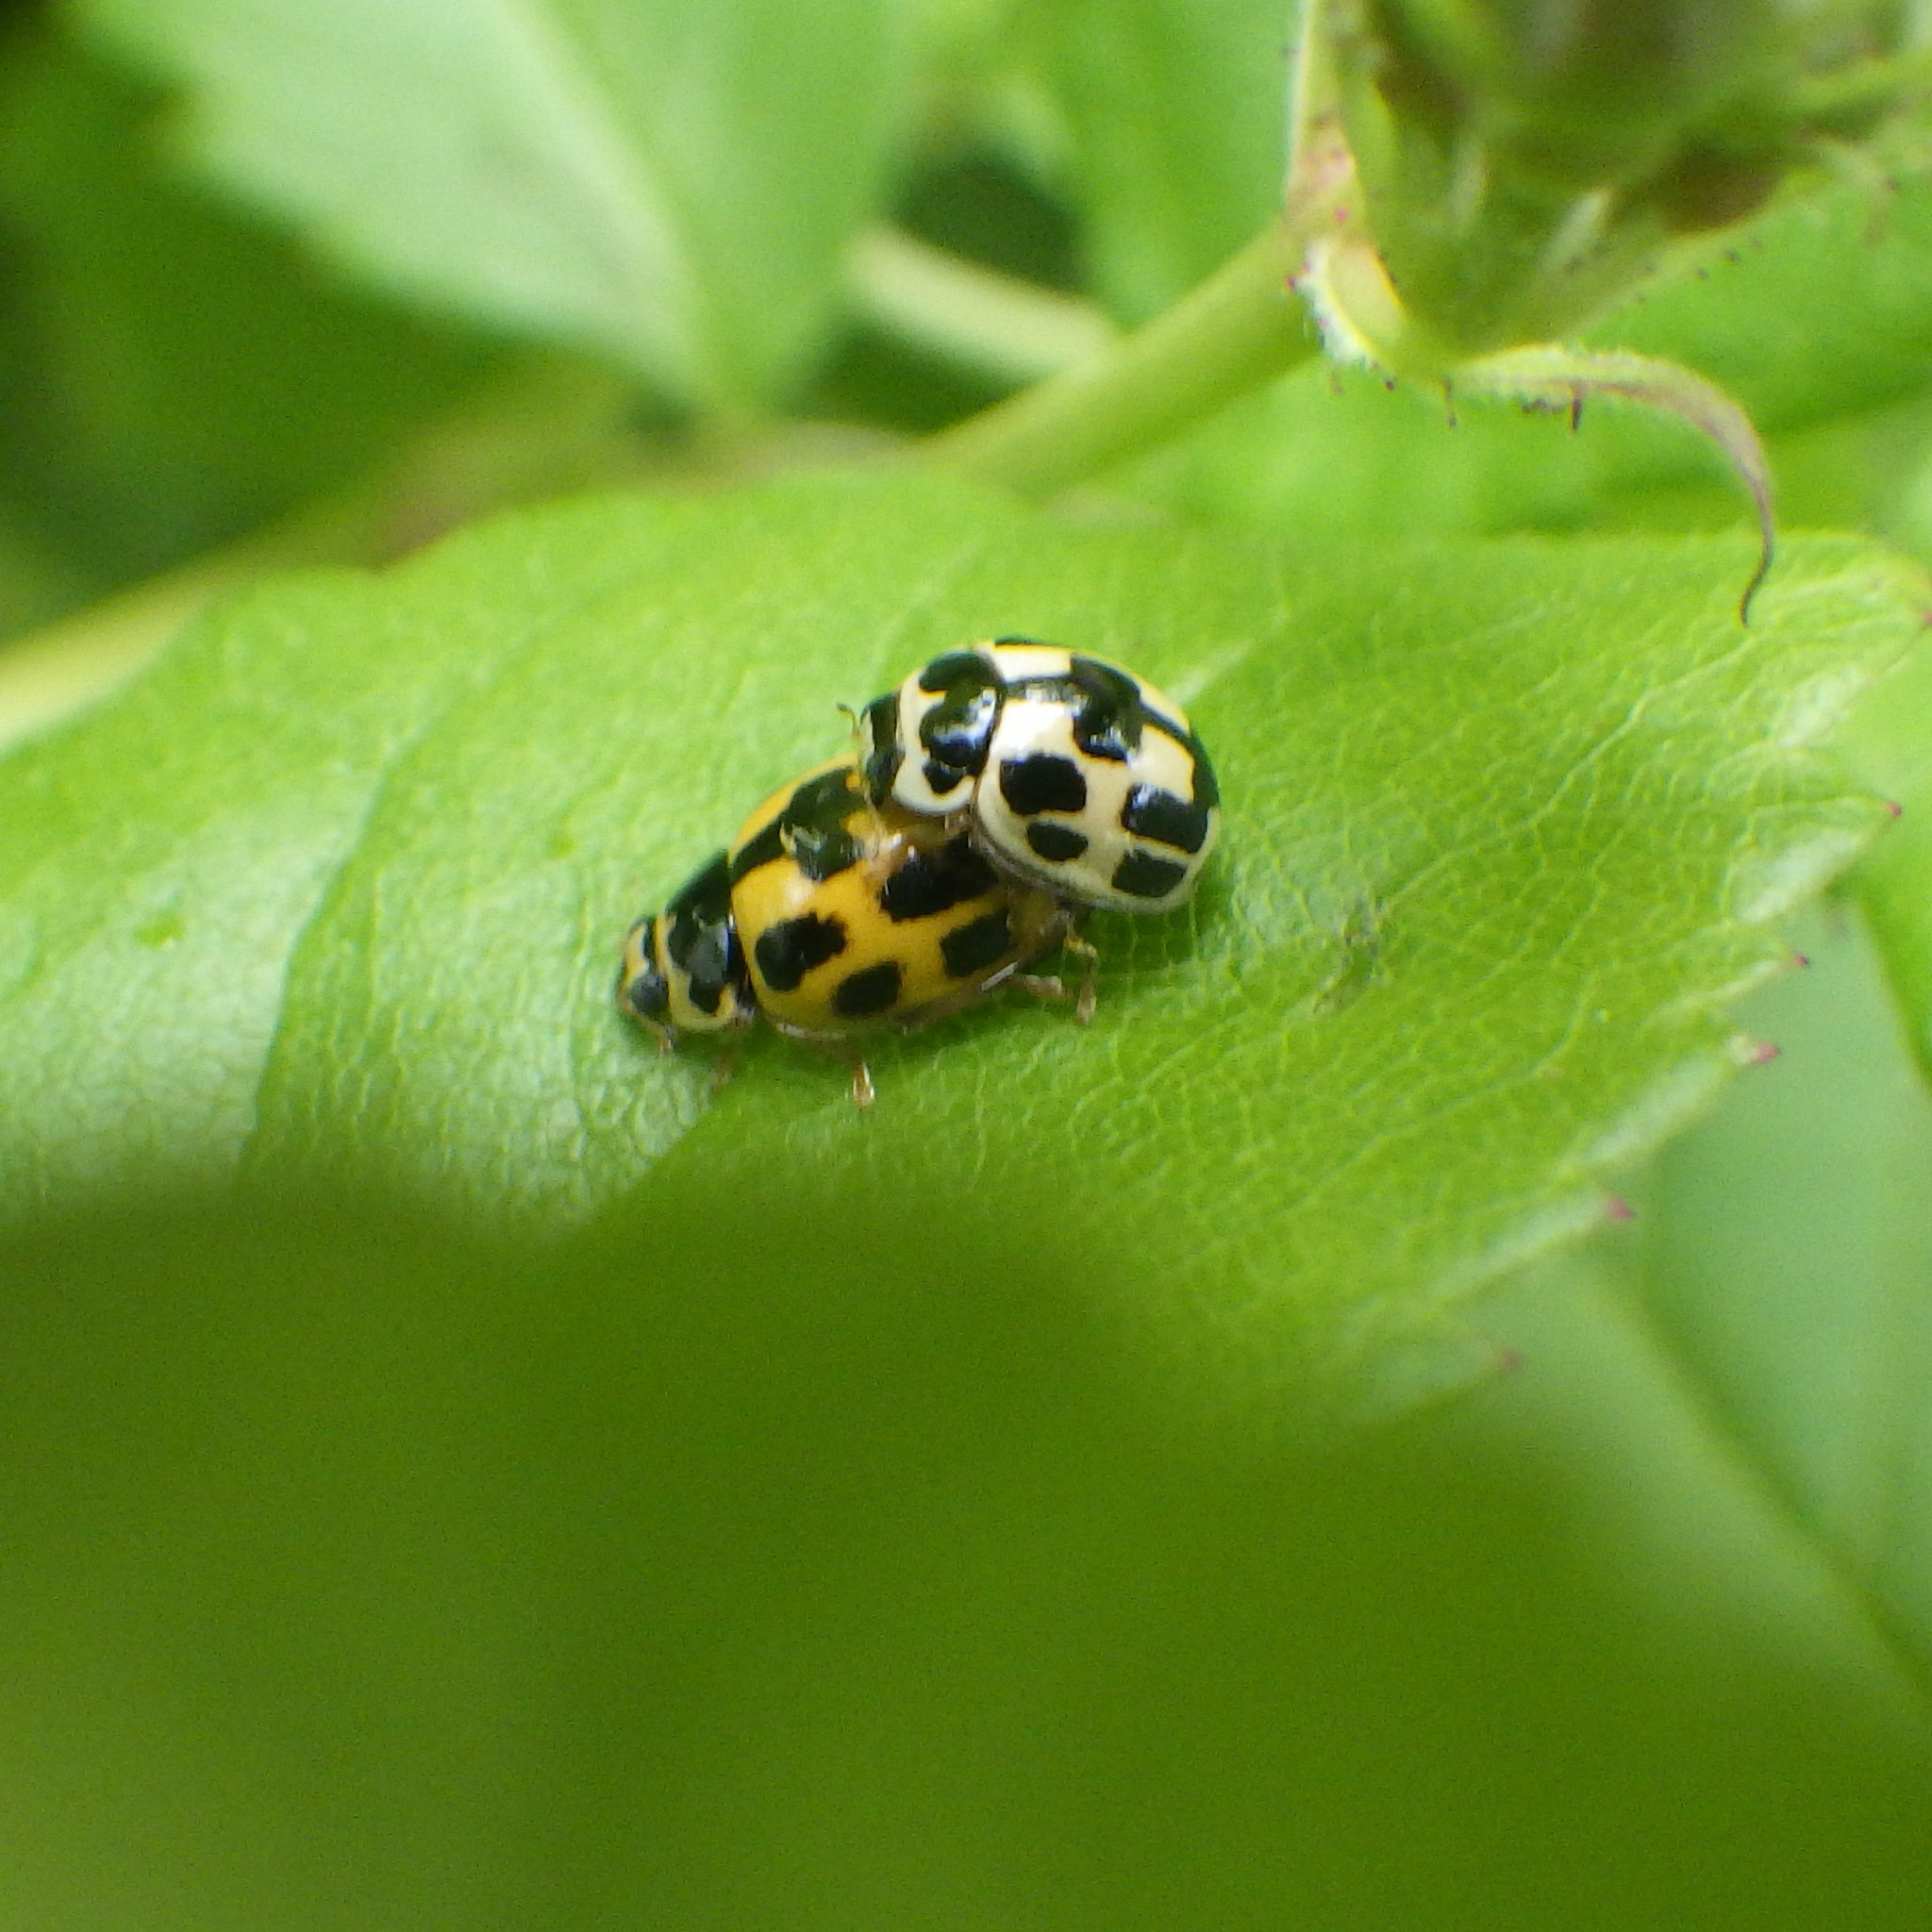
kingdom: Animalia
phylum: Arthropoda
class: Insecta
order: Coleoptera
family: Coccinellidae
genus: Propylaea
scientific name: Propylaea quatuordecimpunctata
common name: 14-spotted ladybird beetle
